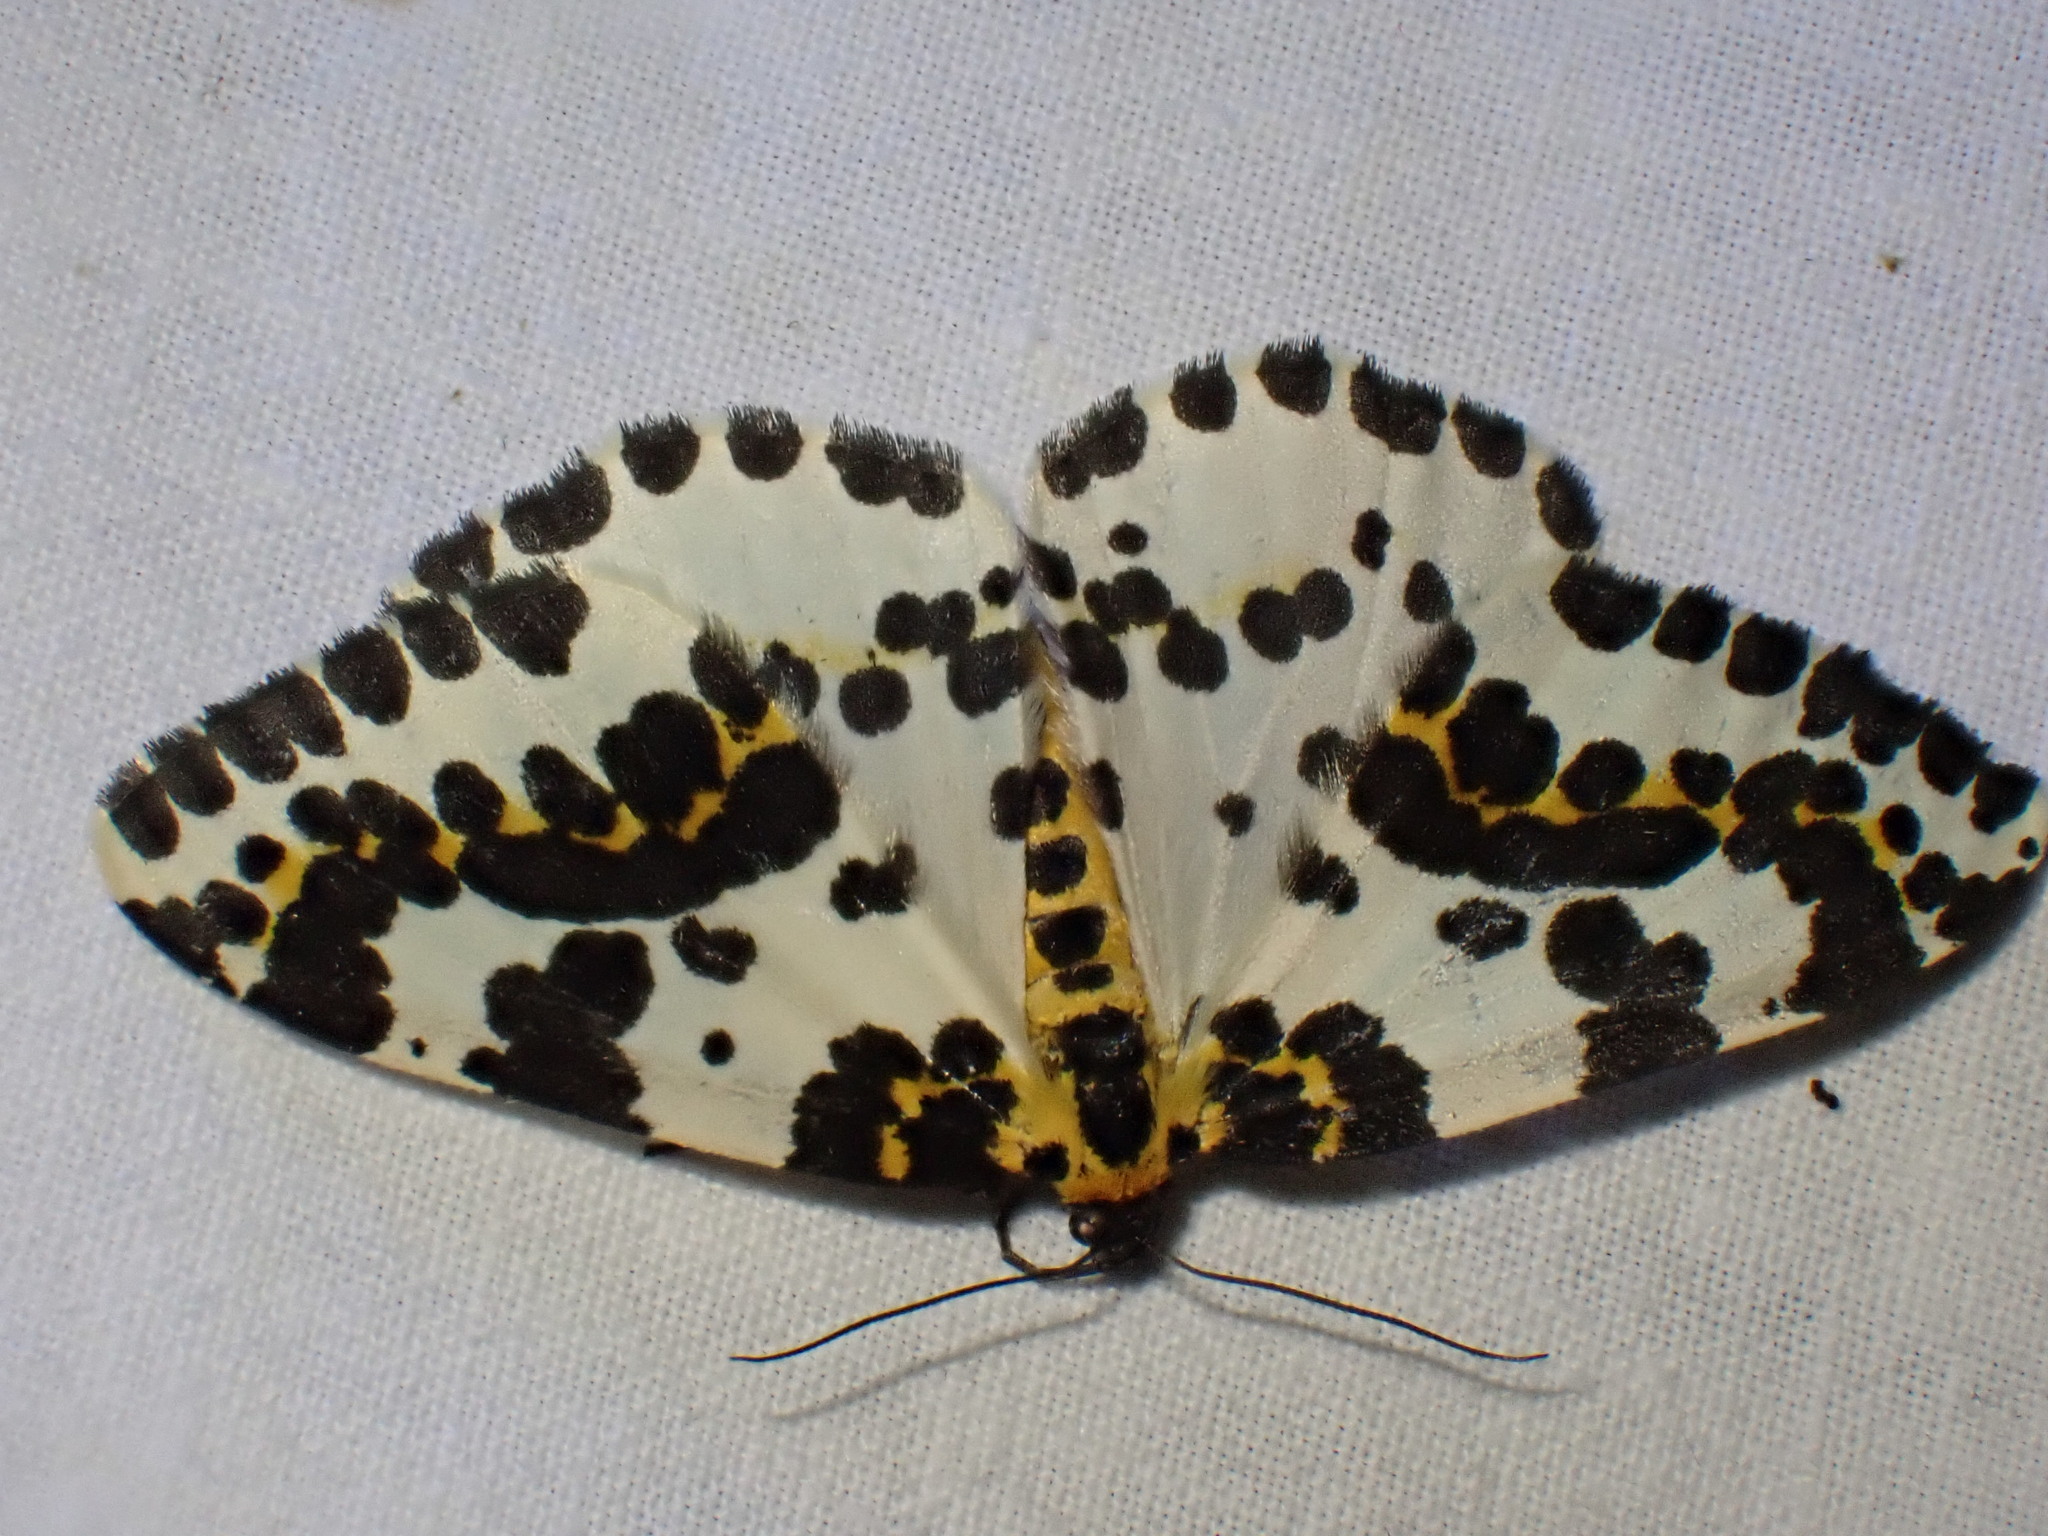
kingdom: Animalia
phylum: Arthropoda
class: Insecta
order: Lepidoptera
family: Geometridae
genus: Abraxas
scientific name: Abraxas grossulariata
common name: Magpie
